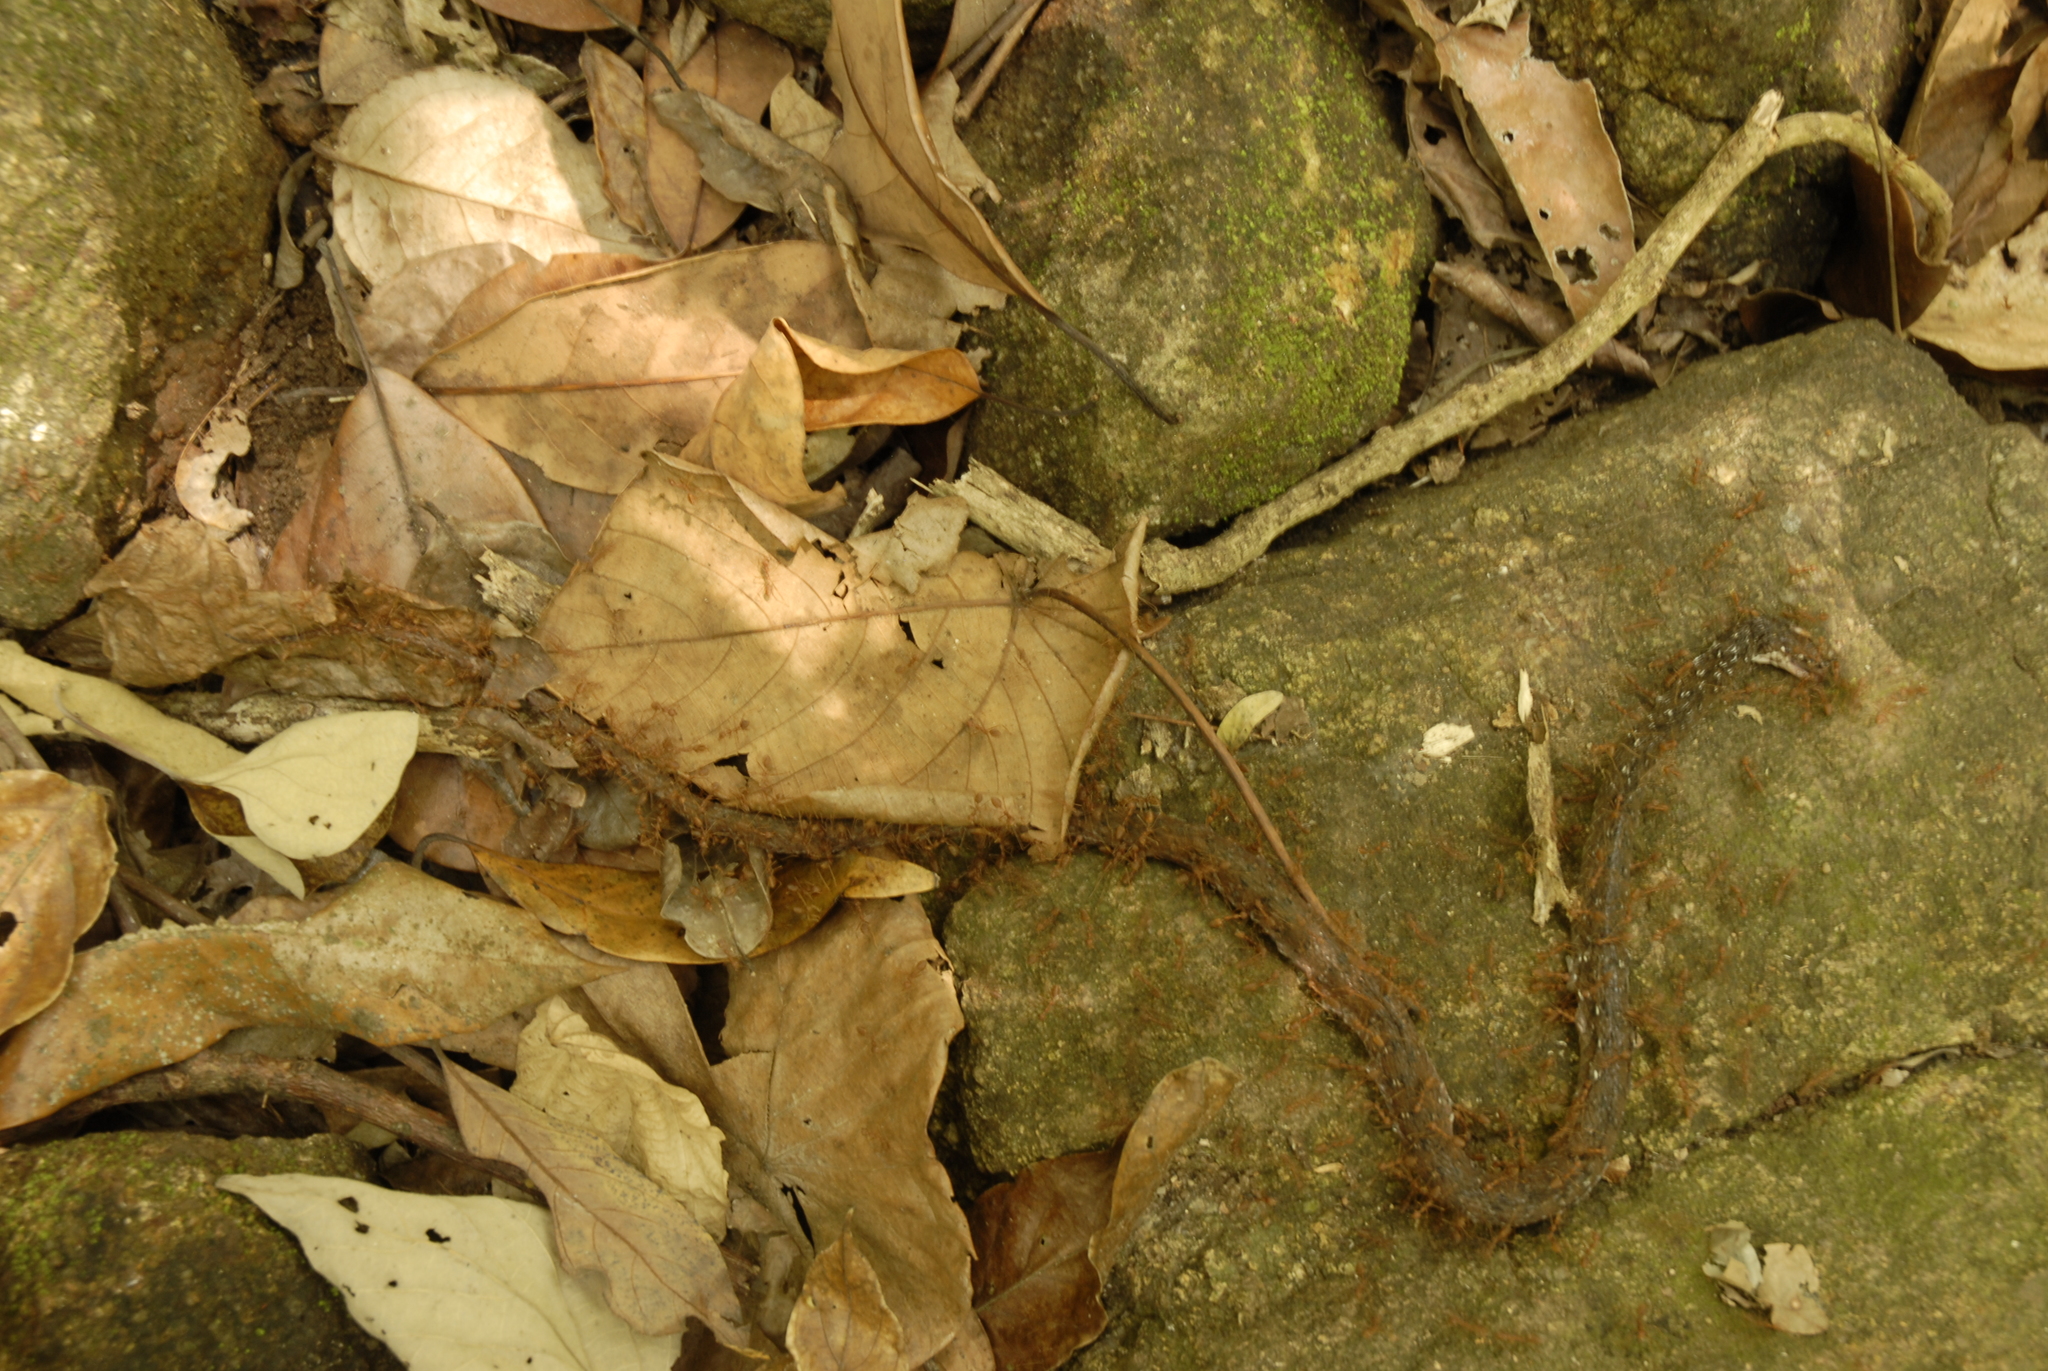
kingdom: Animalia
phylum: Chordata
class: Squamata
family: Colubridae
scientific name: Colubridae
